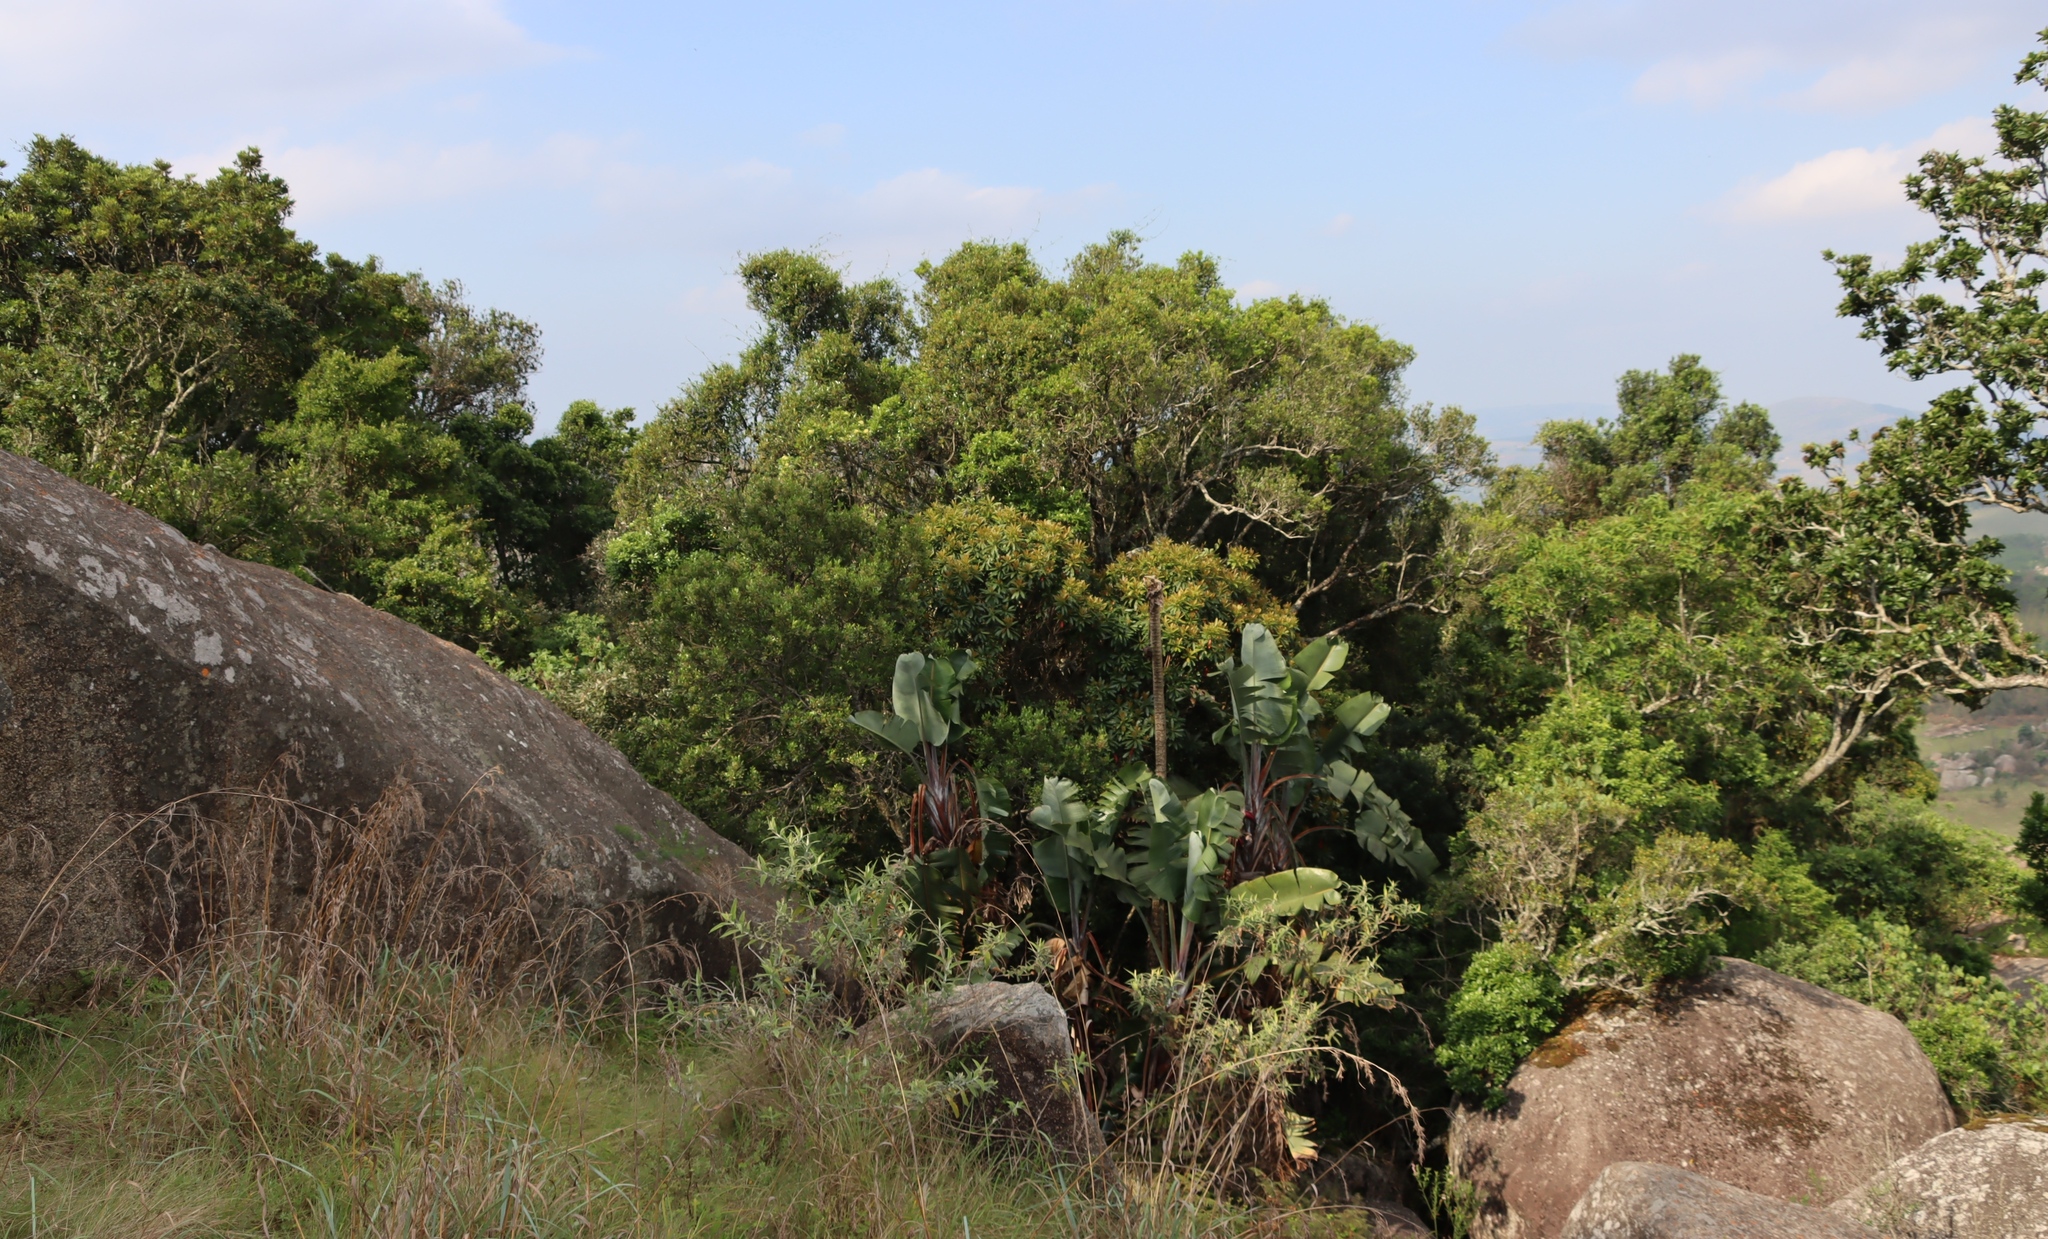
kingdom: Plantae
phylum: Tracheophyta
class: Liliopsida
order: Zingiberales
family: Strelitziaceae
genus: Strelitzia
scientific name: Strelitzia nicolai
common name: Bird-of-paradise tree
